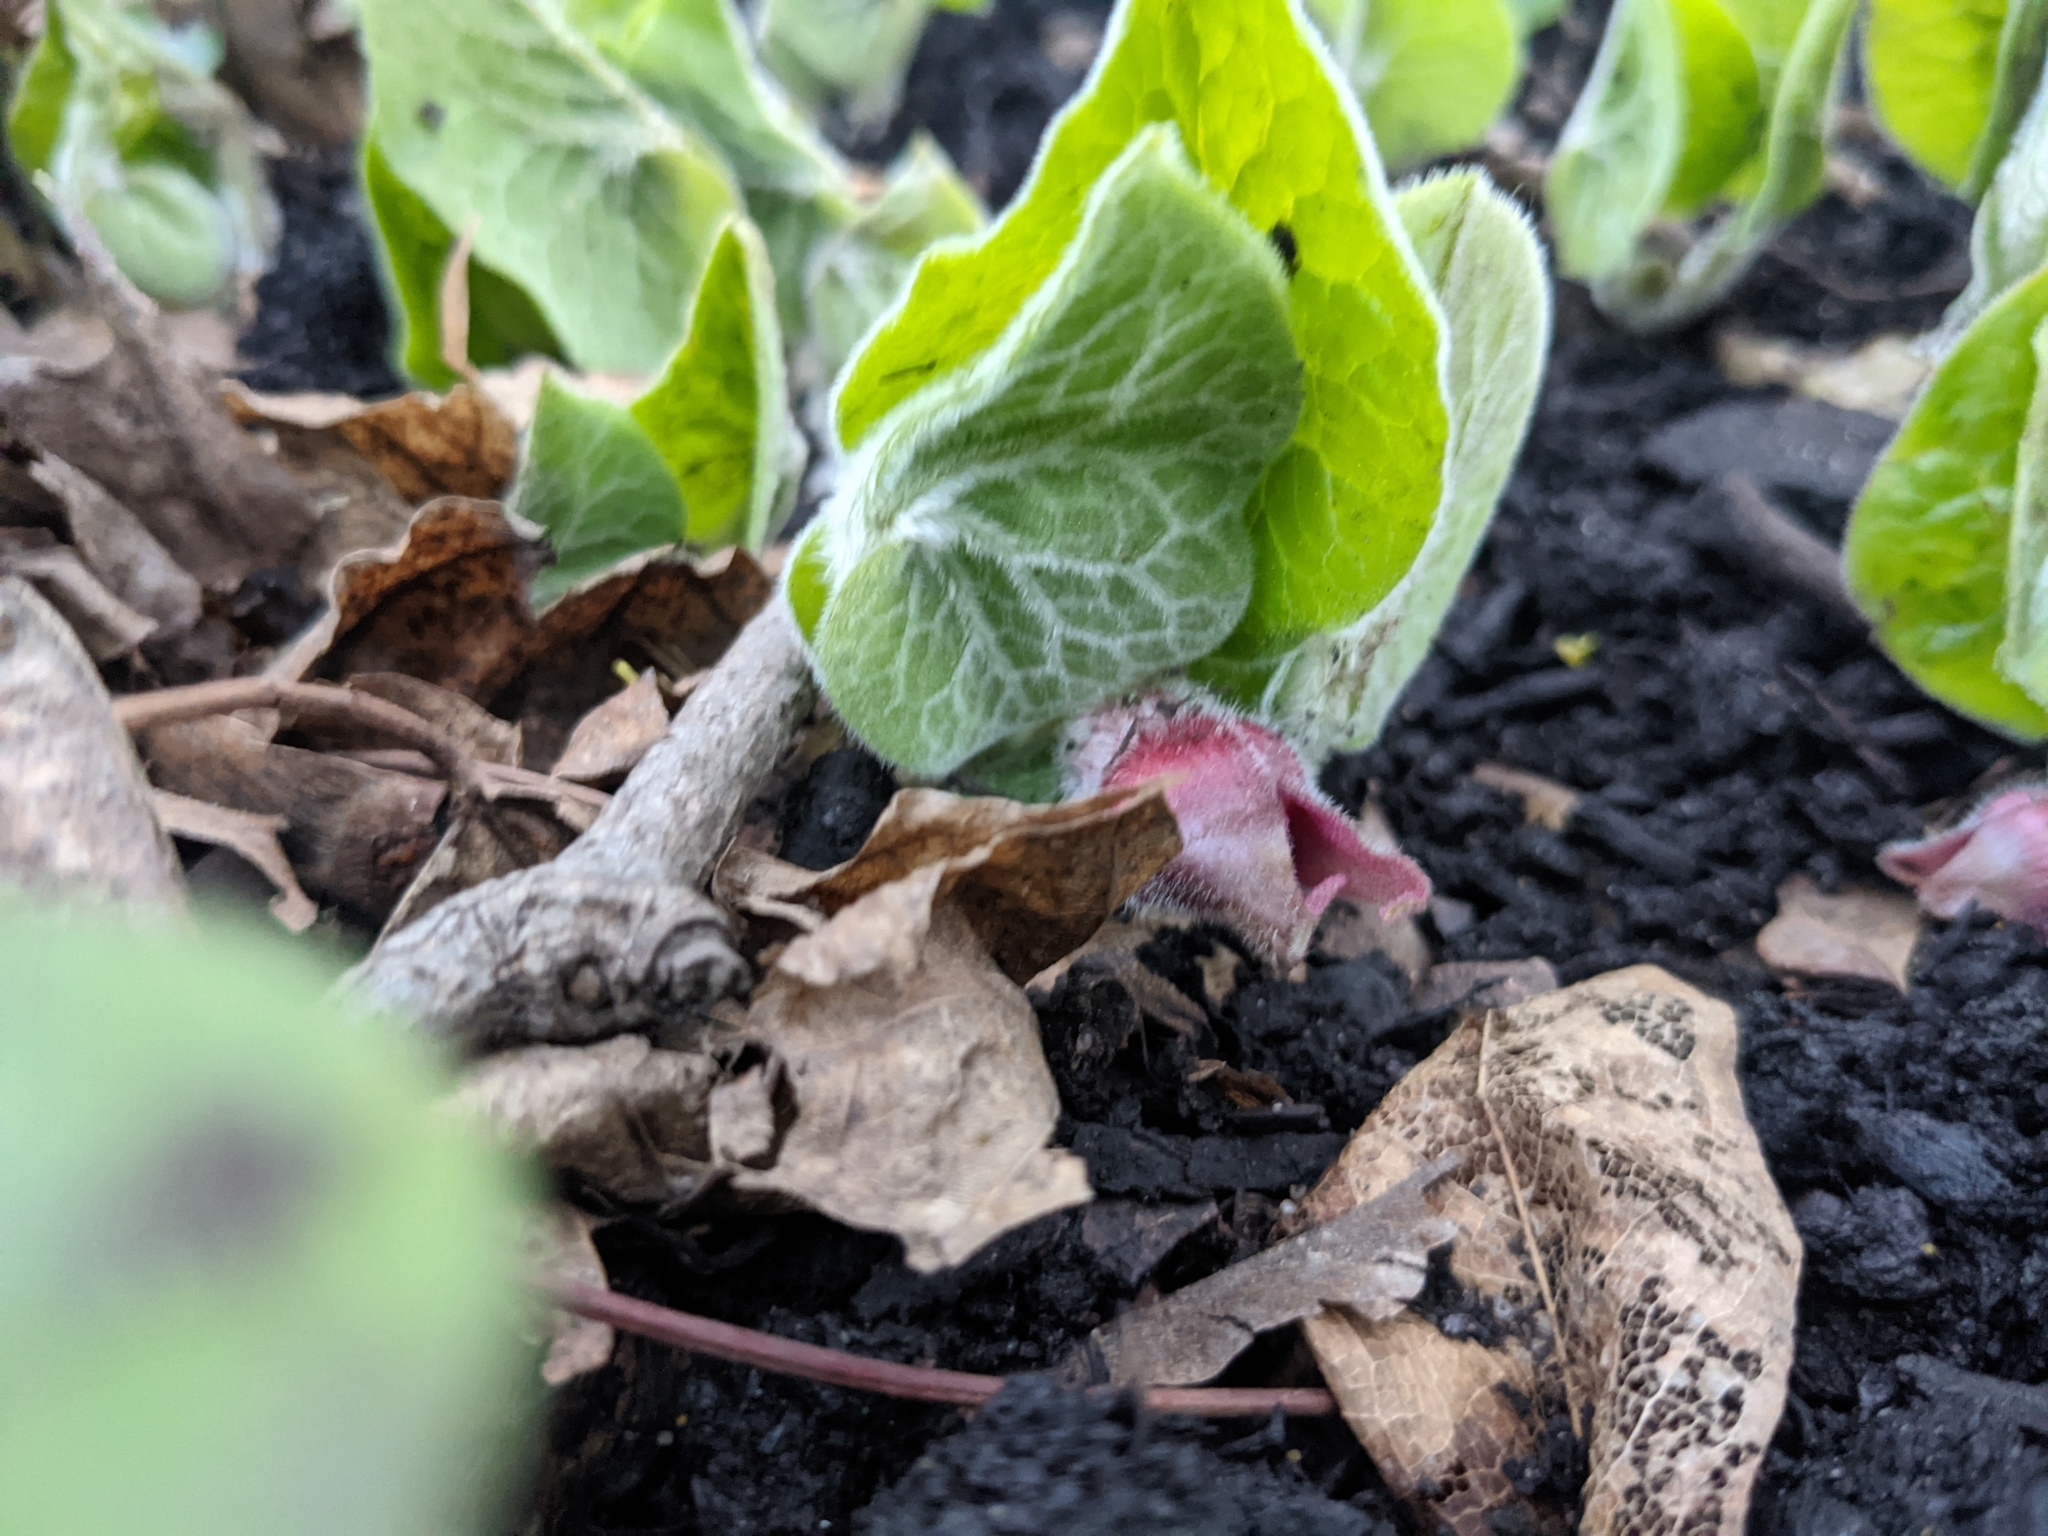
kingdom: Plantae
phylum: Tracheophyta
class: Magnoliopsida
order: Piperales
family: Aristolochiaceae
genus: Asarum
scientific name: Asarum canadense
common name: Wild ginger
